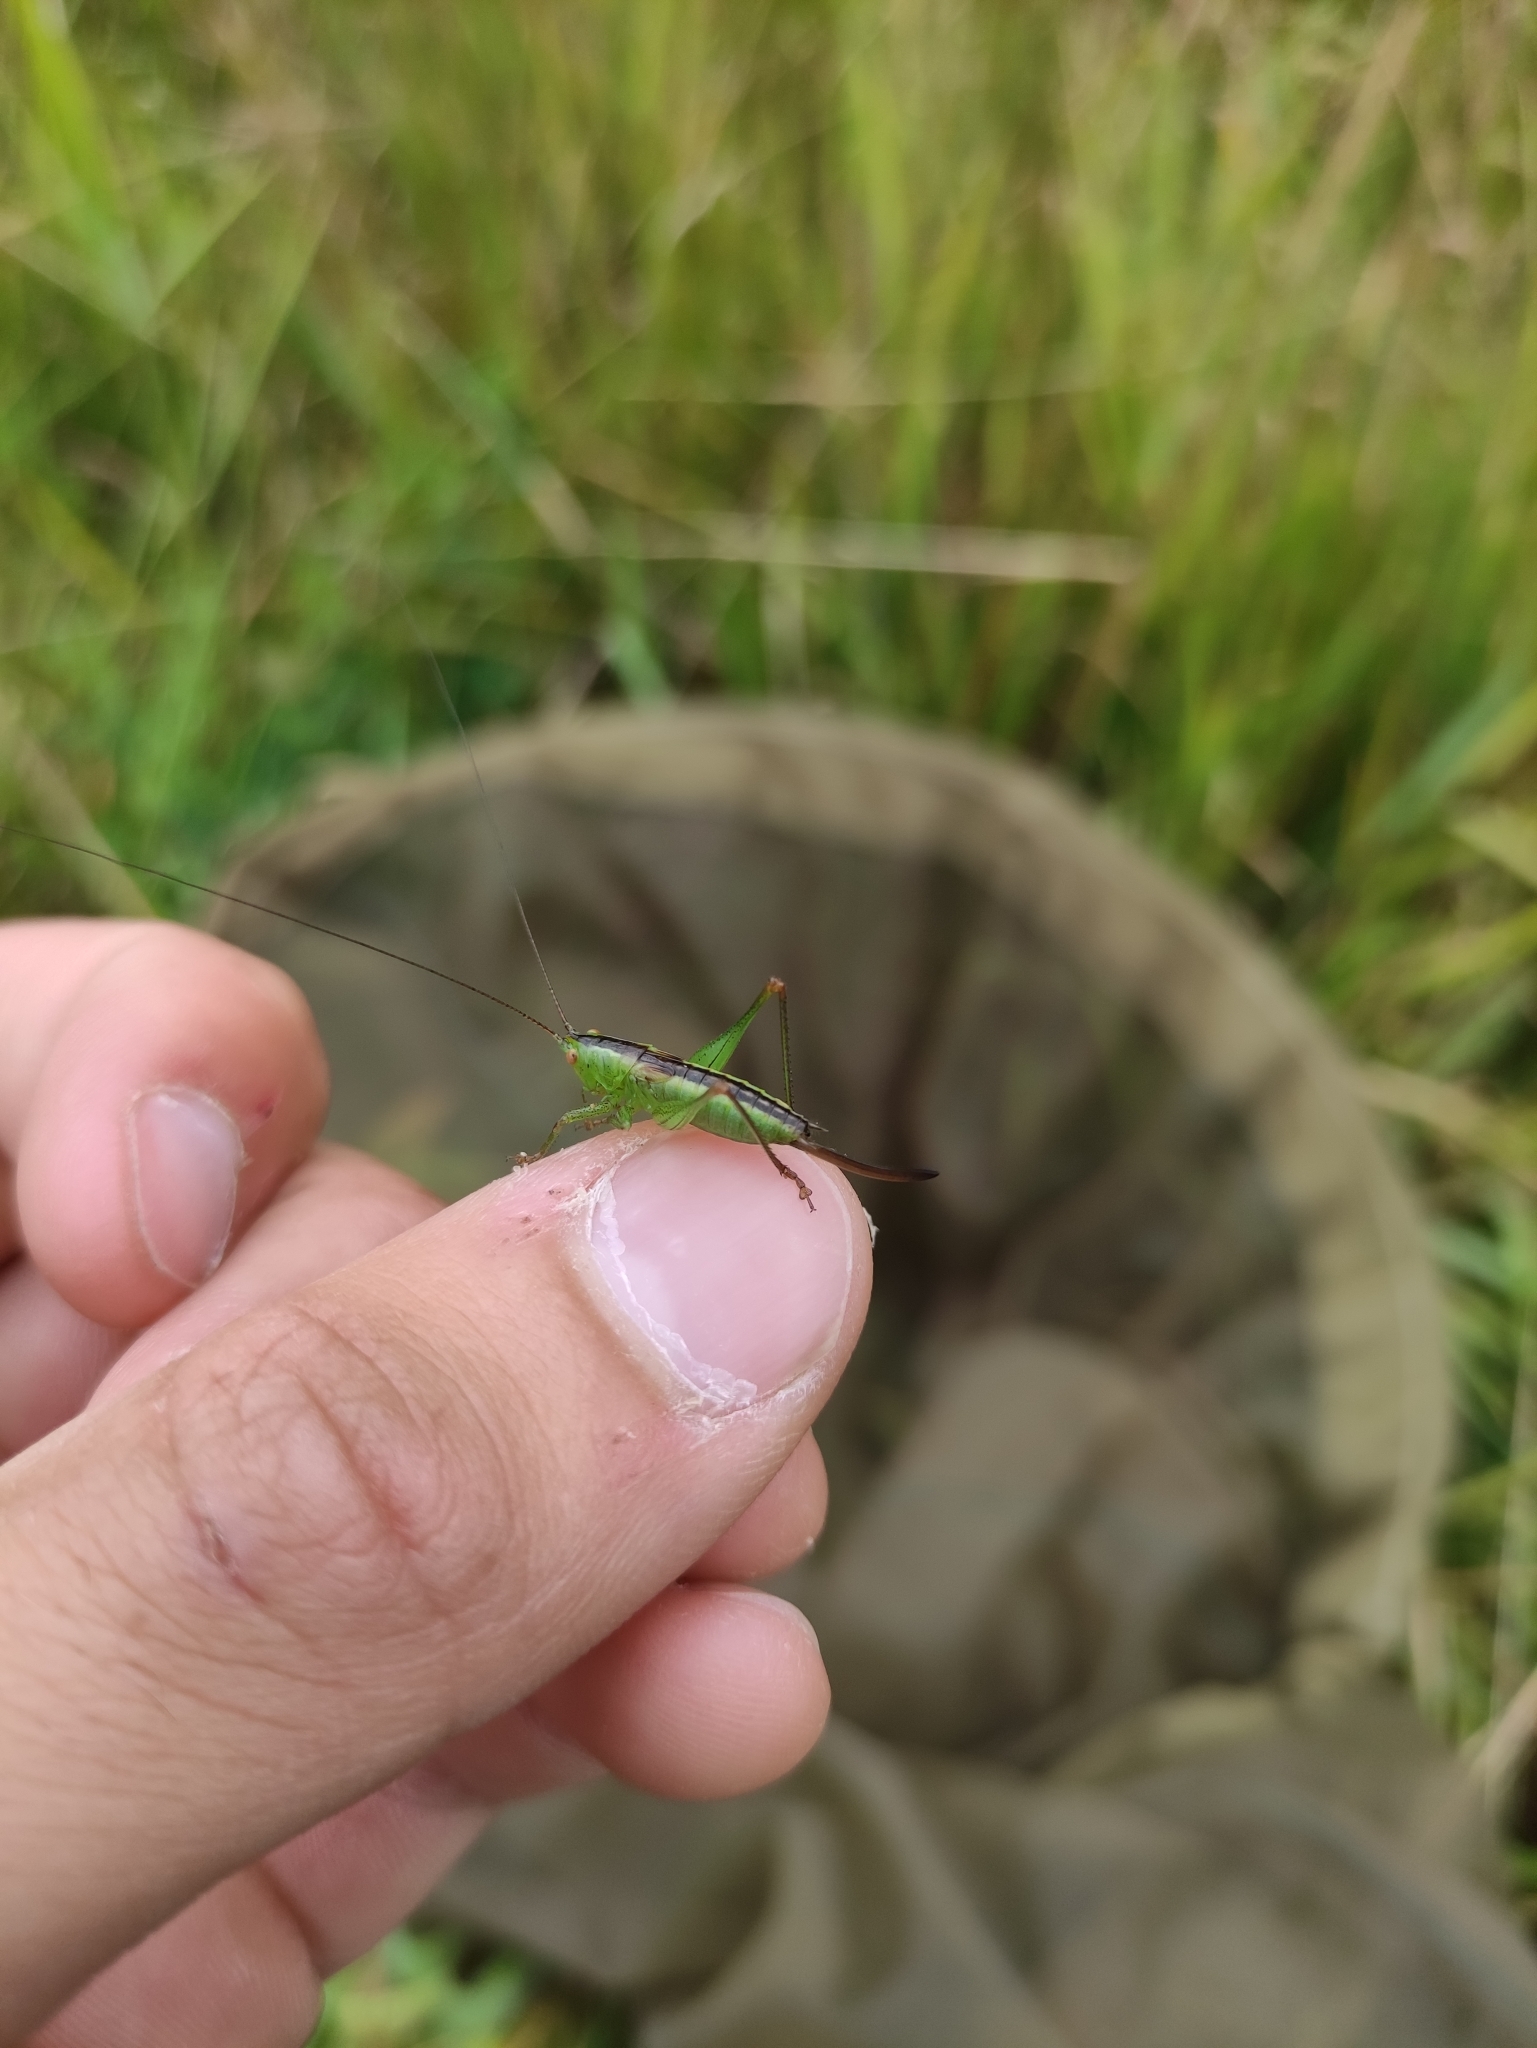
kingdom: Animalia
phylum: Arthropoda
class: Insecta
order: Orthoptera
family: Tettigoniidae
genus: Conocephalus
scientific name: Conocephalus dorsalis
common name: Short-winged conehead
